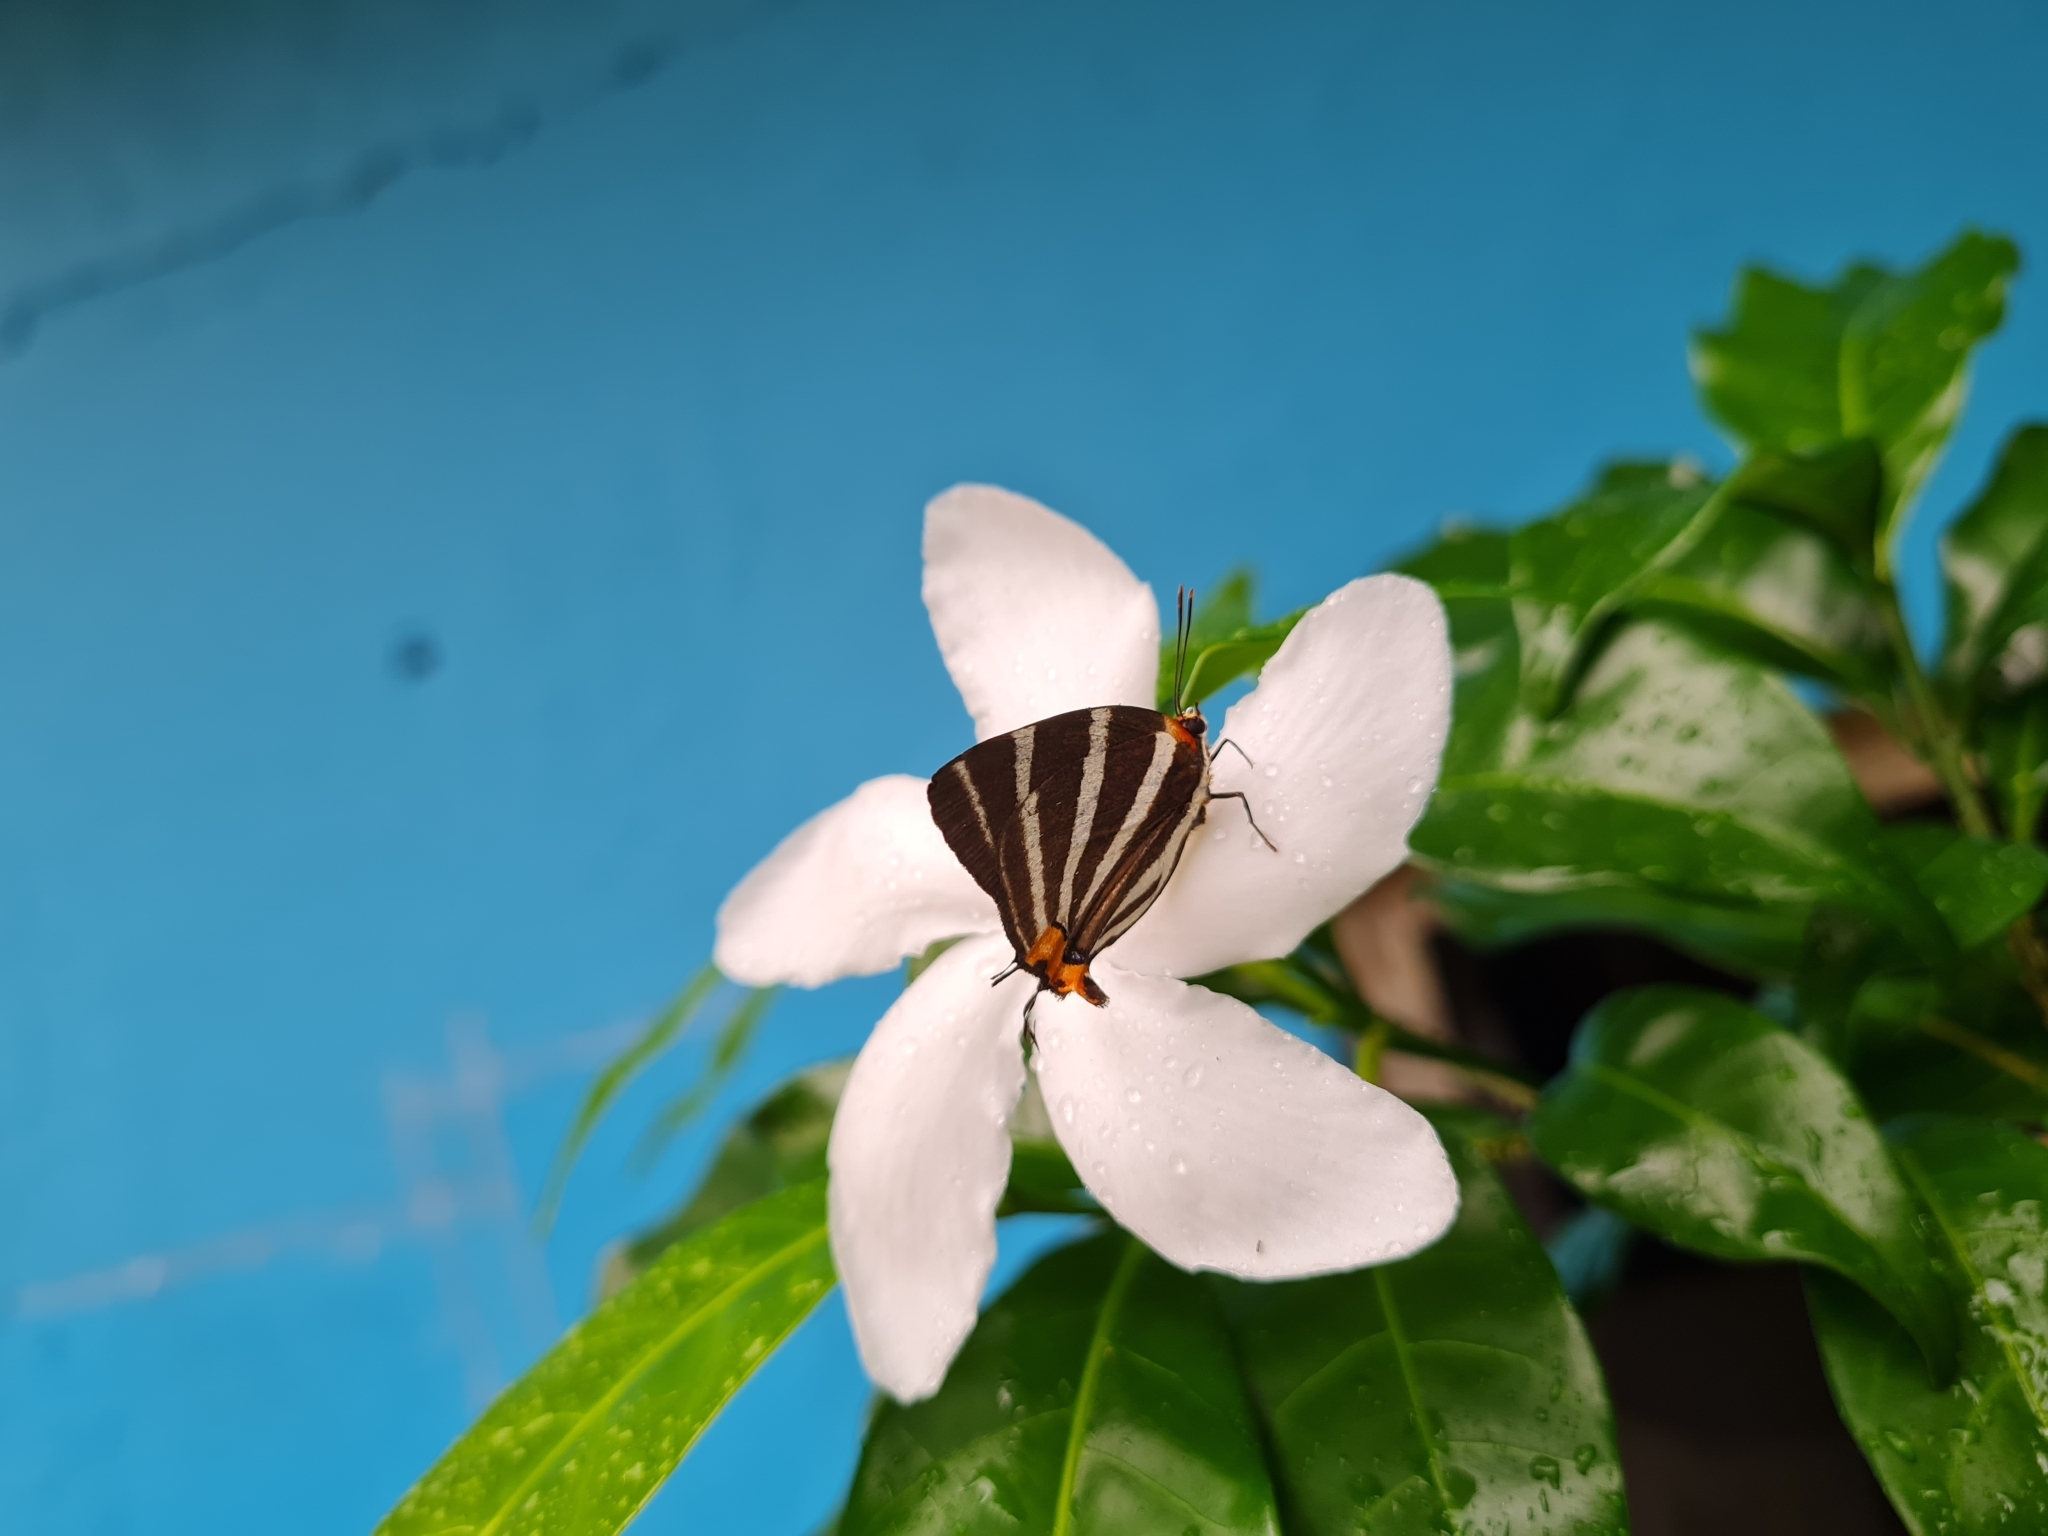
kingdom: Animalia
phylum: Arthropoda
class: Insecta
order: Lepidoptera
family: Lycaenidae
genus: Thecla
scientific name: Thecla bathildis
